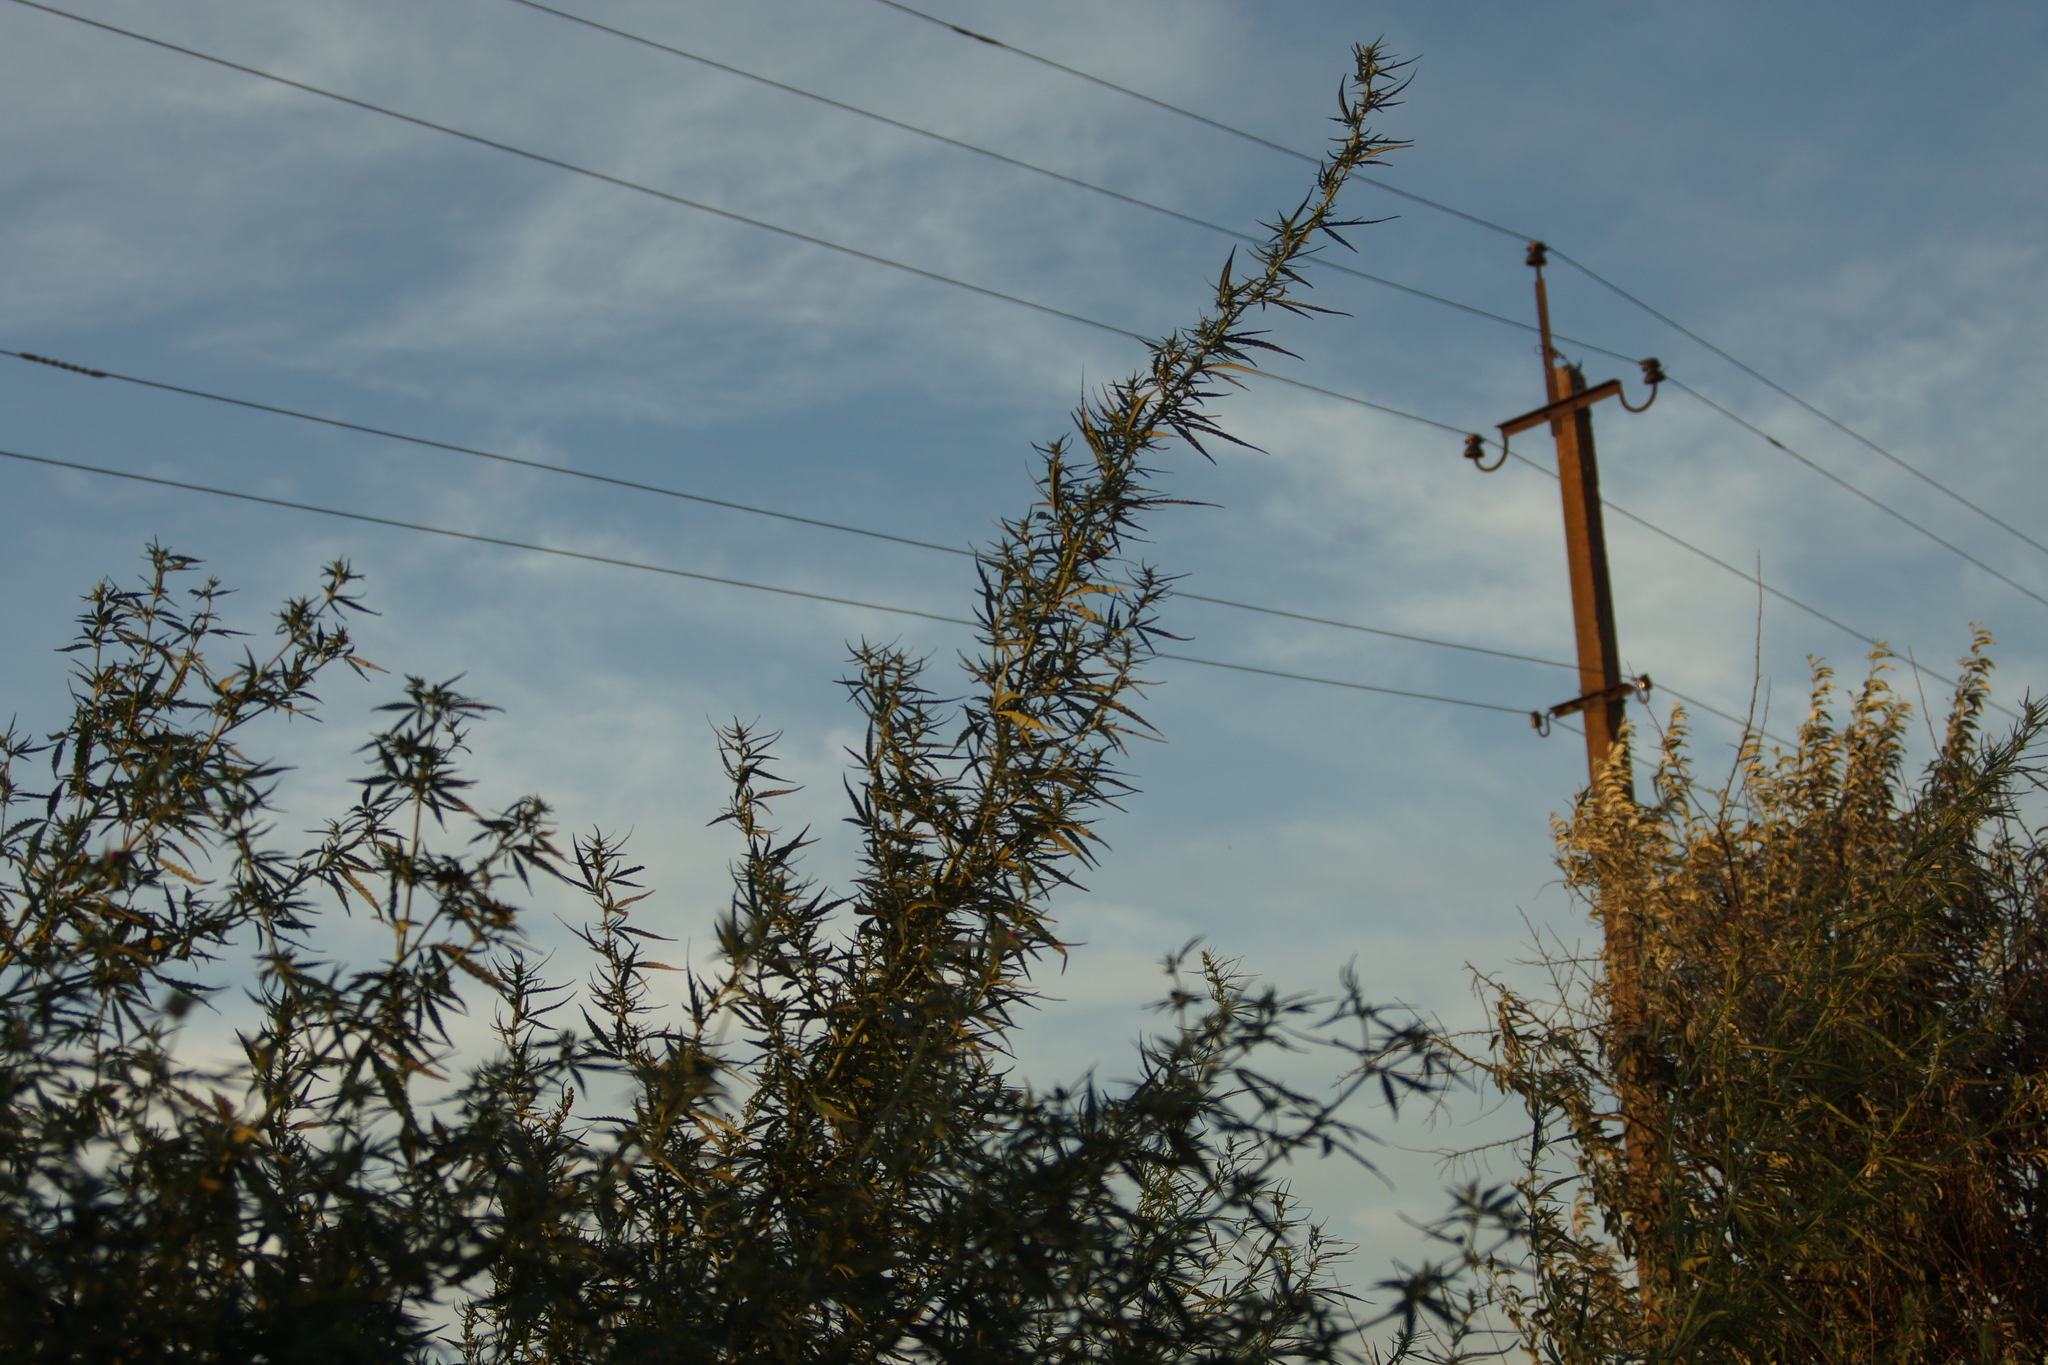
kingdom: Plantae
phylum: Tracheophyta
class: Magnoliopsida
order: Rosales
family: Cannabaceae
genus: Cannabis
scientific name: Cannabis sativa
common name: Hemp
